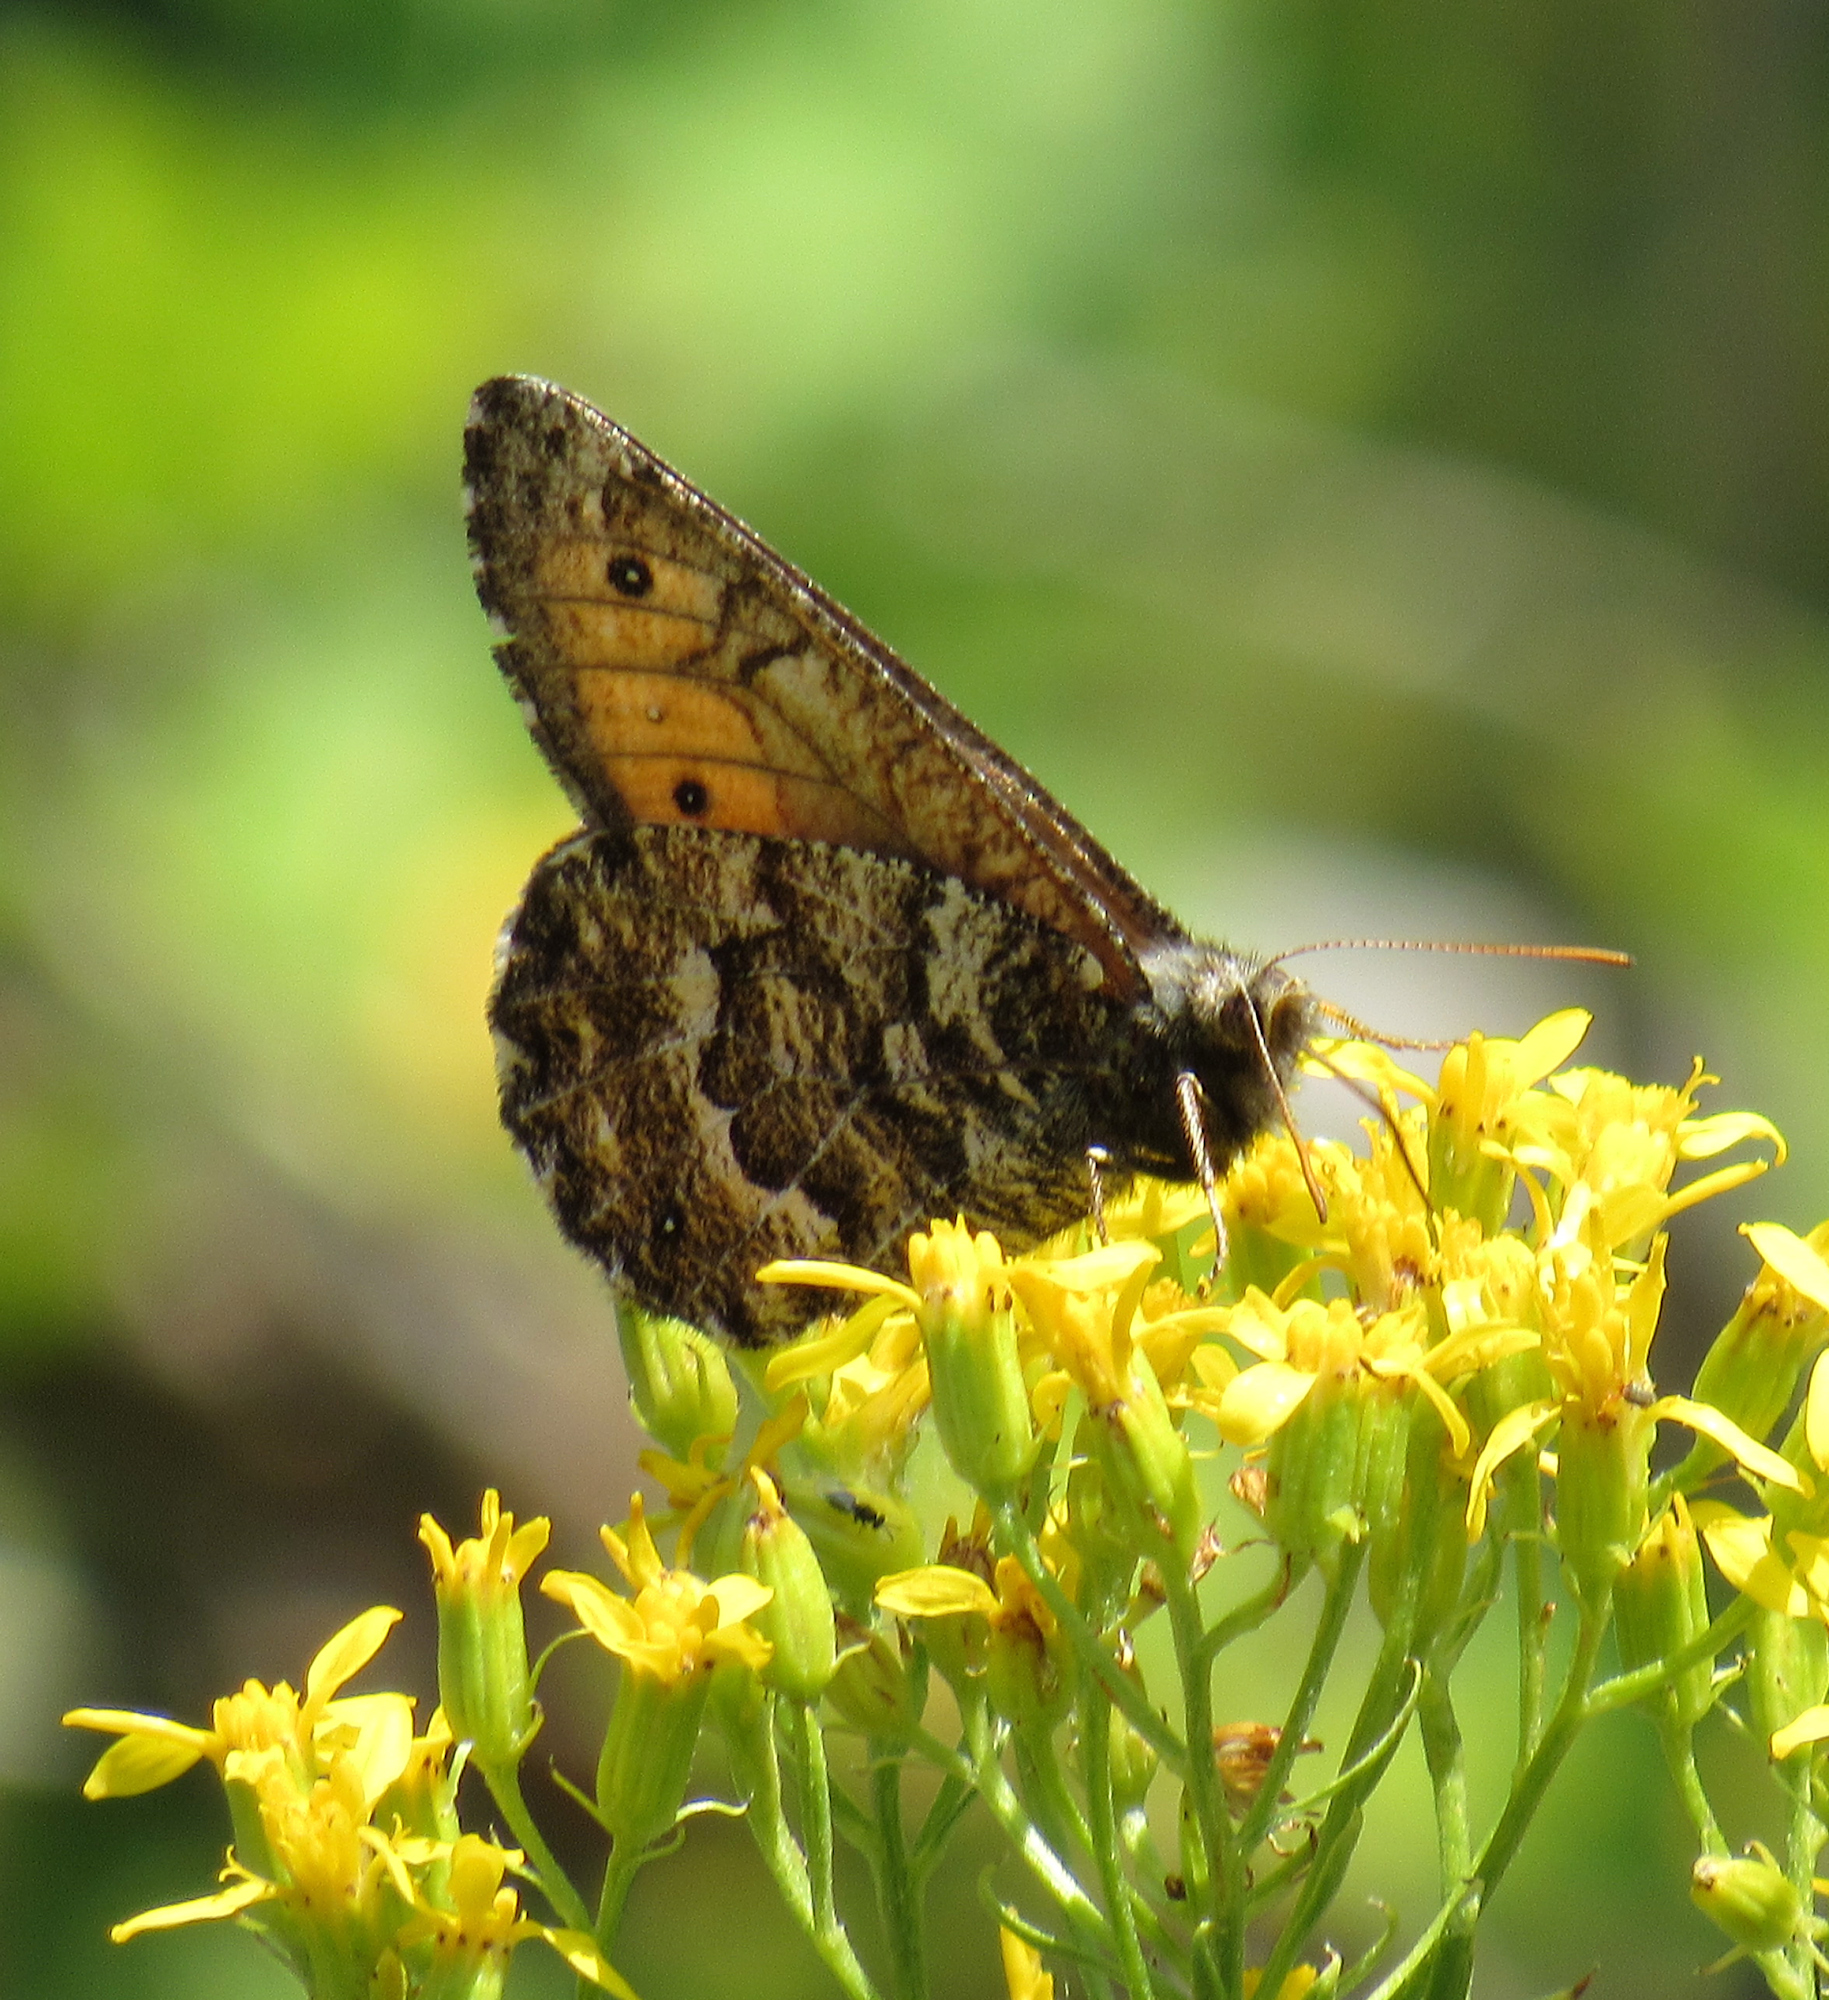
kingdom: Animalia
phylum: Arthropoda
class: Insecta
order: Lepidoptera
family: Nymphalidae
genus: Oeneis
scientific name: Oeneis chryxus
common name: Chryxus arctic
